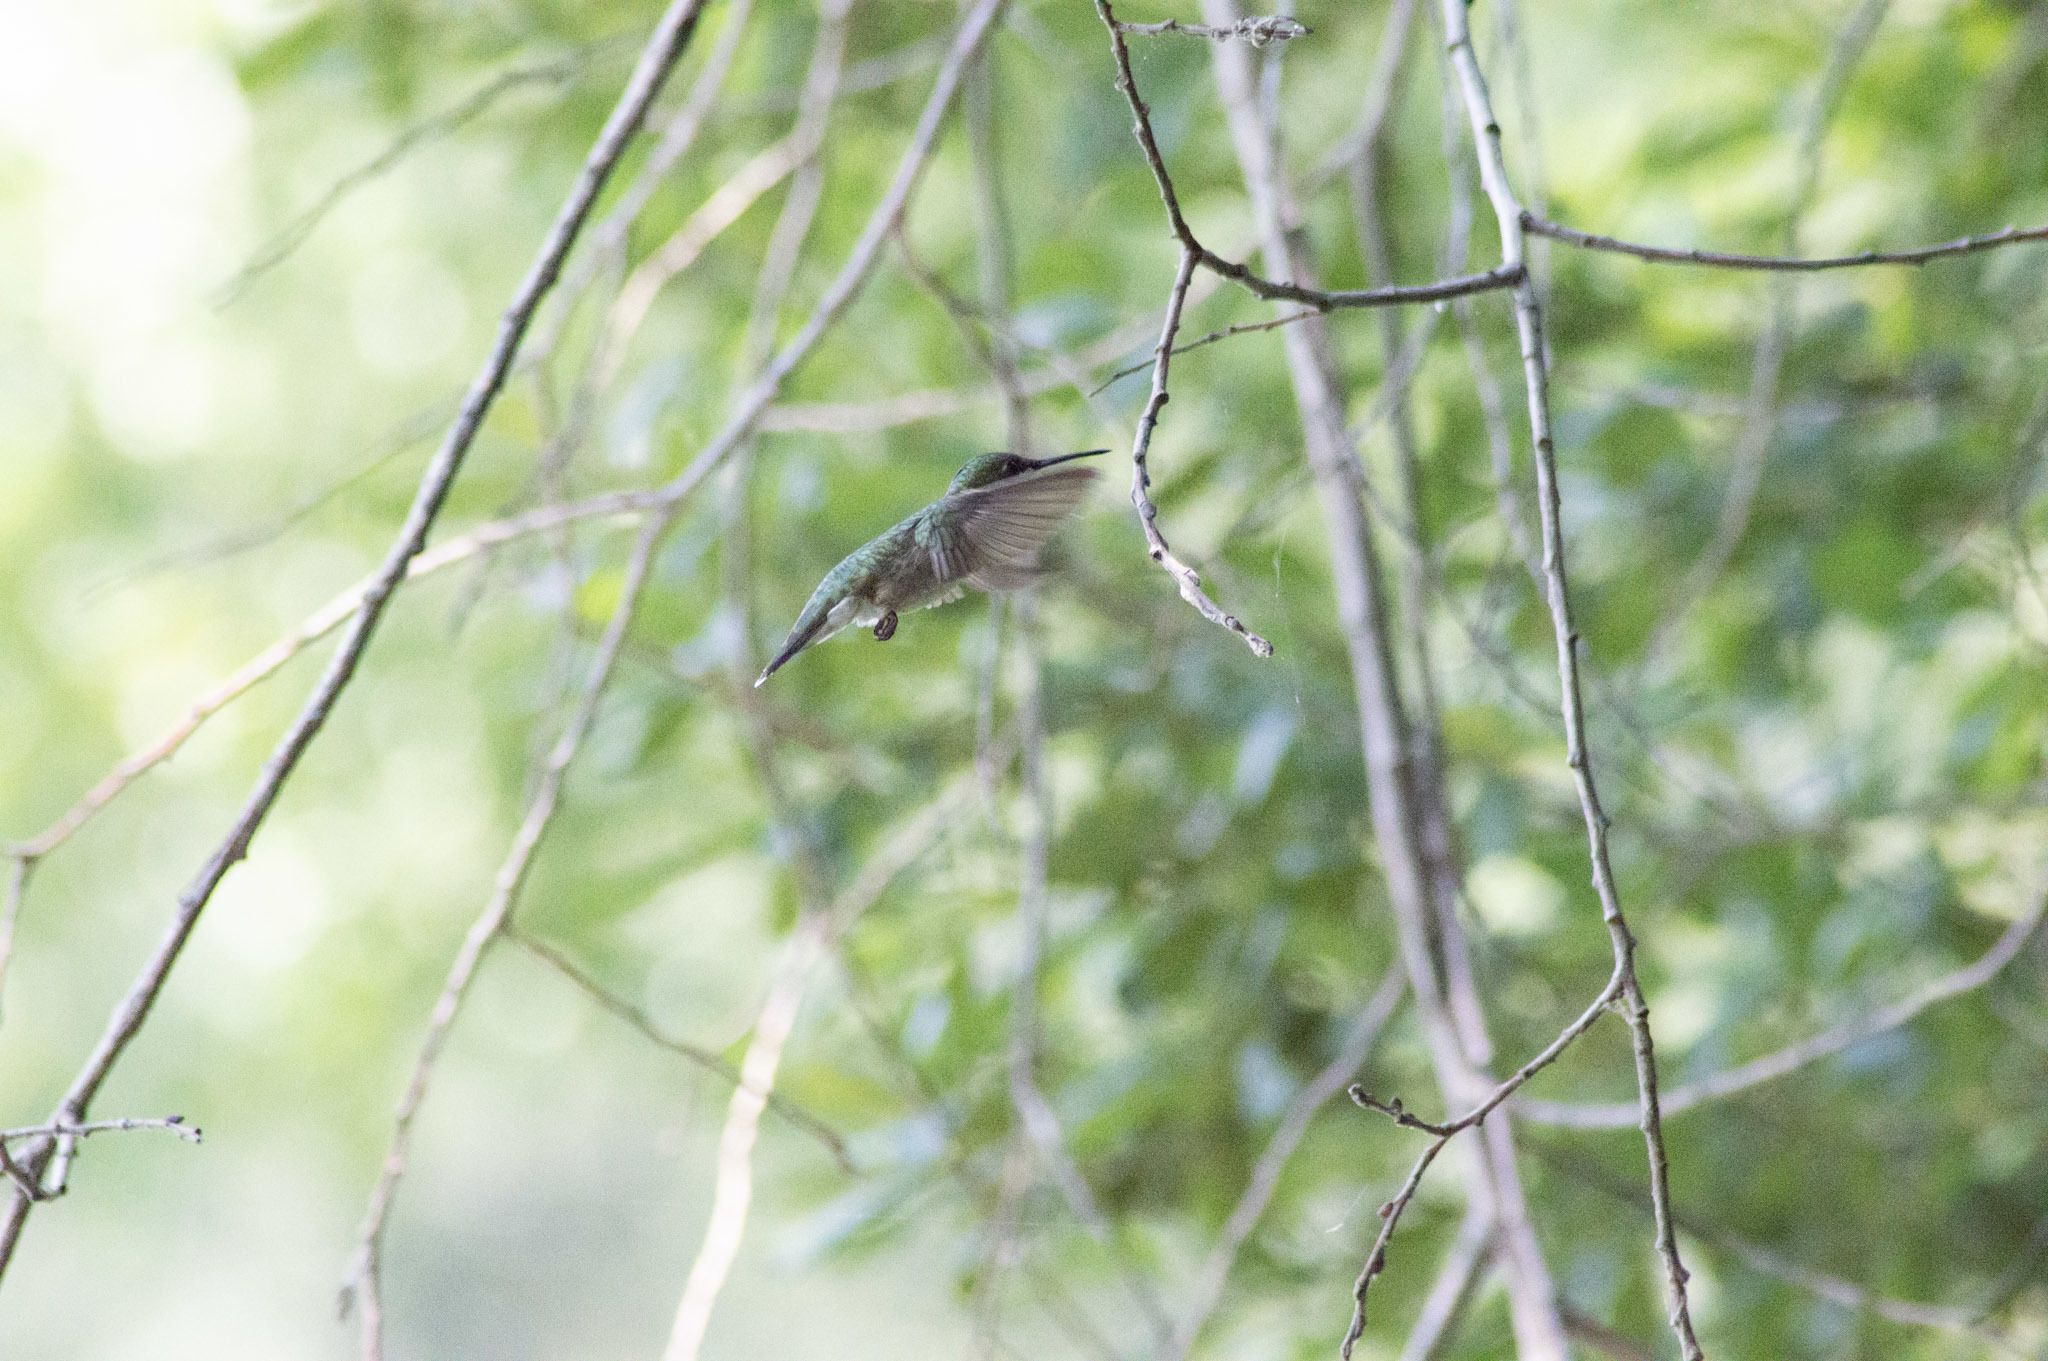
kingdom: Animalia
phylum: Chordata
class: Aves
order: Apodiformes
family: Trochilidae
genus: Archilochus
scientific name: Archilochus colubris
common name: Ruby-throated hummingbird
